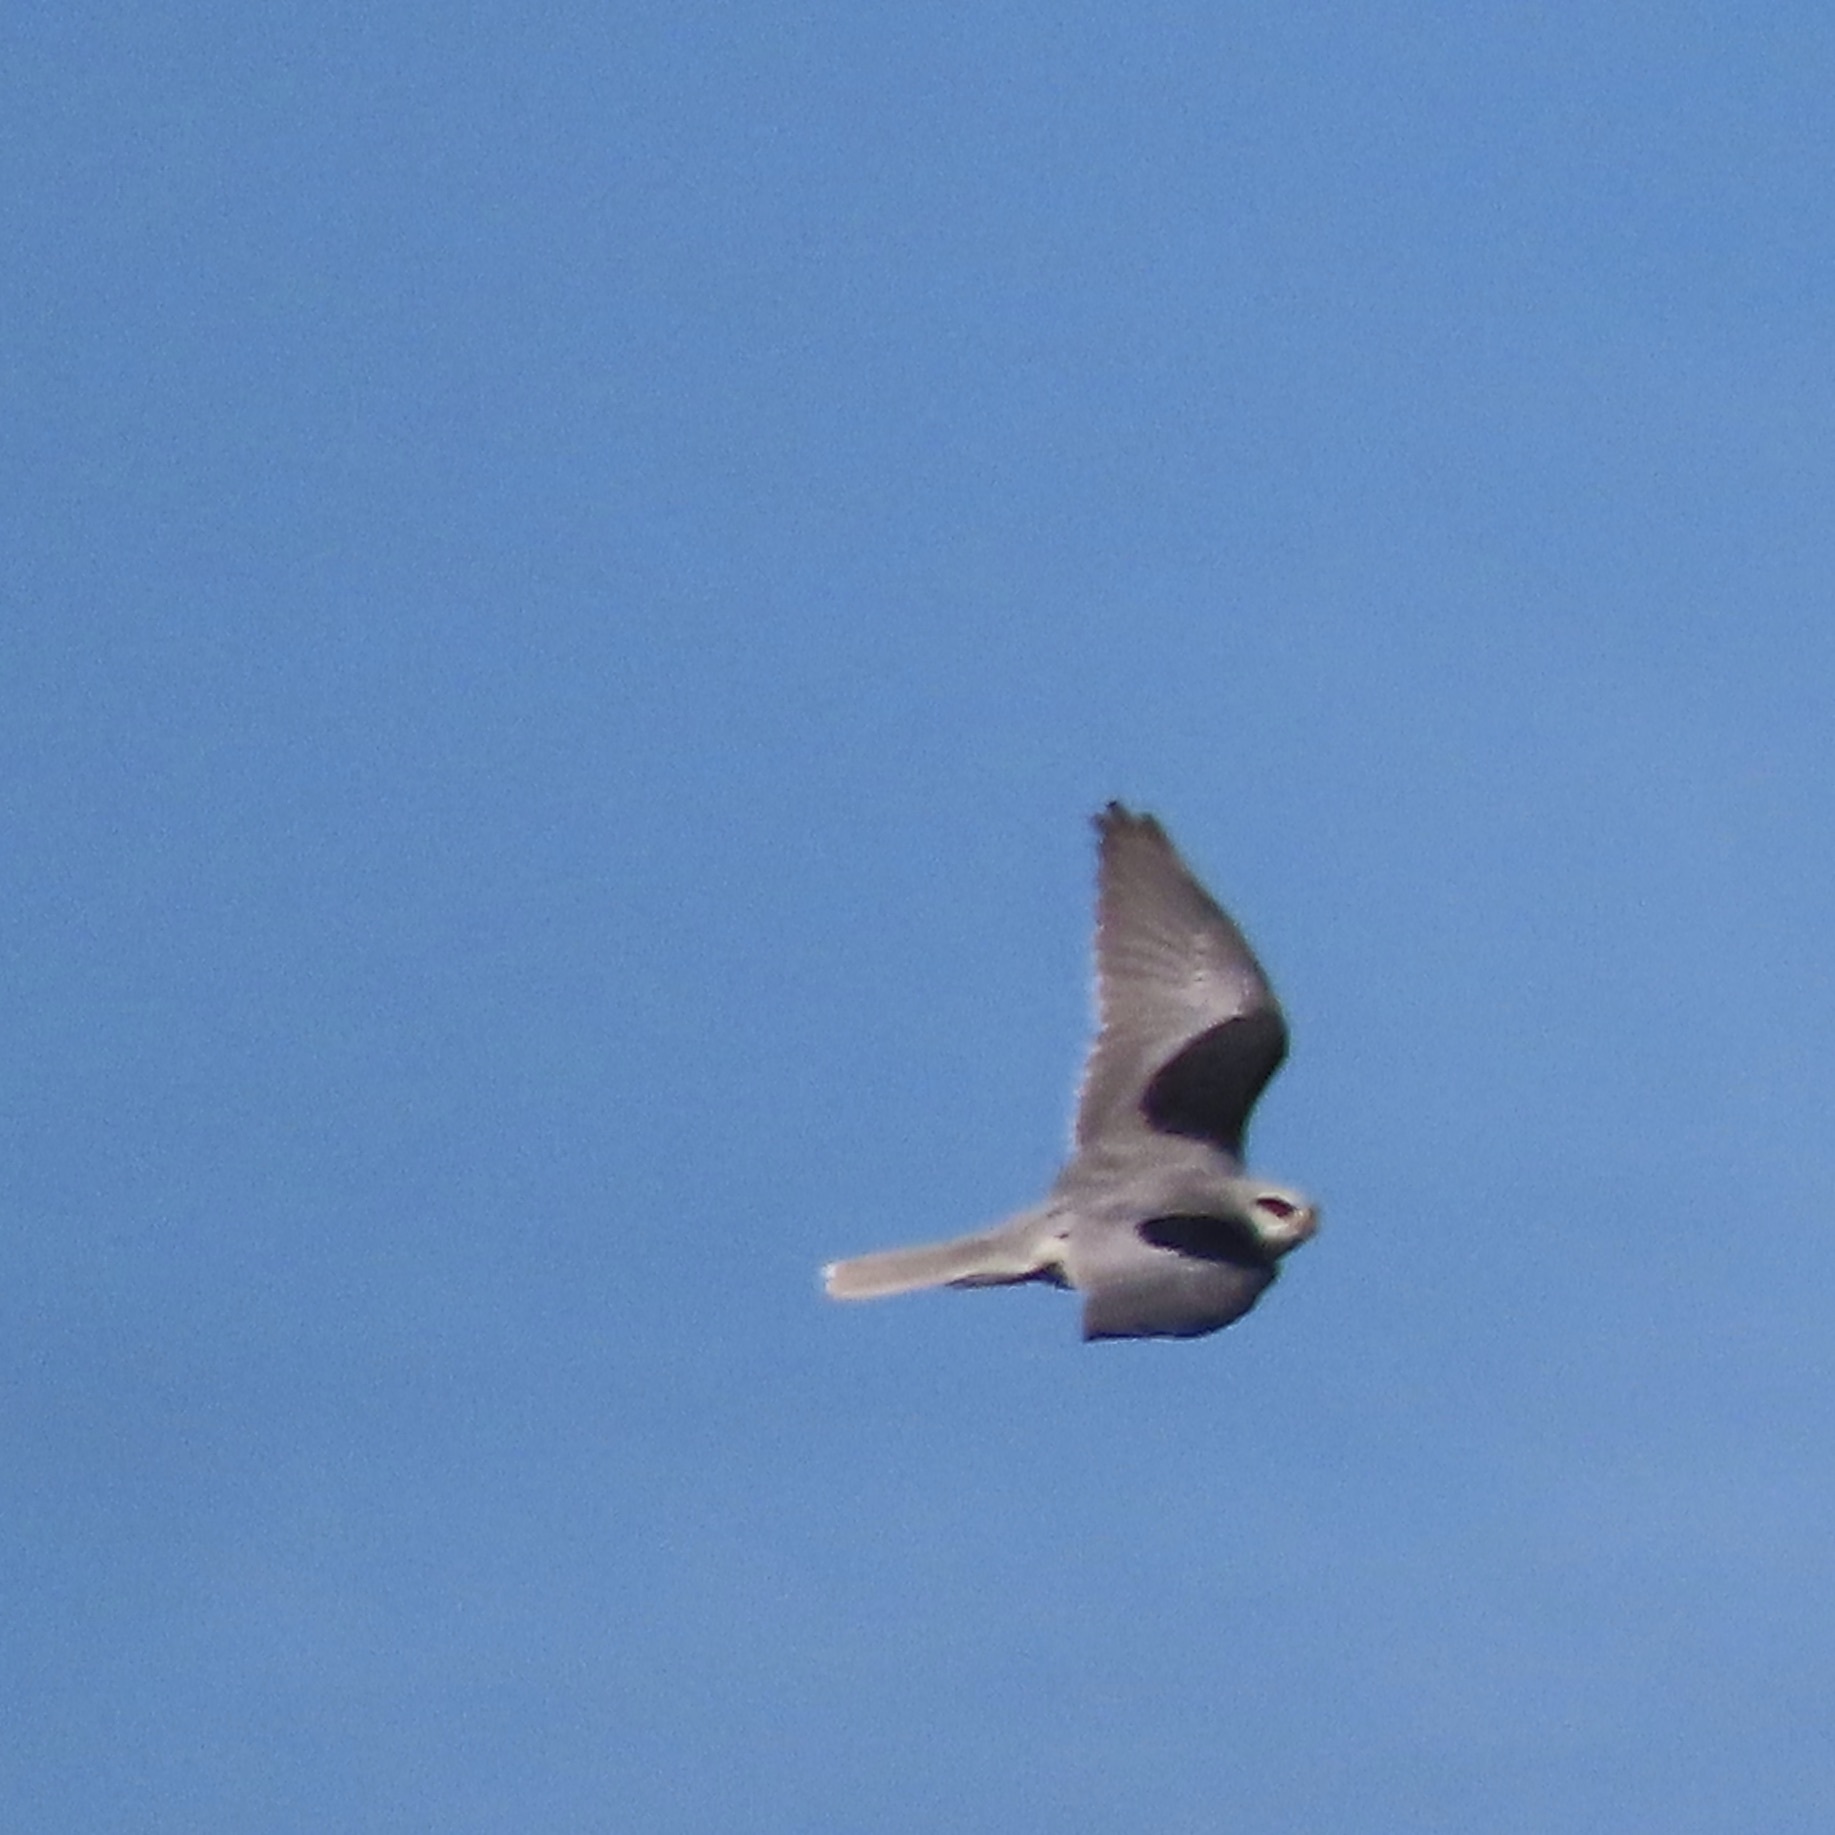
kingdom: Animalia
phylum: Chordata
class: Aves
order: Accipitriformes
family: Accipitridae
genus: Elanus
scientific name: Elanus leucurus
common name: White-tailed kite
